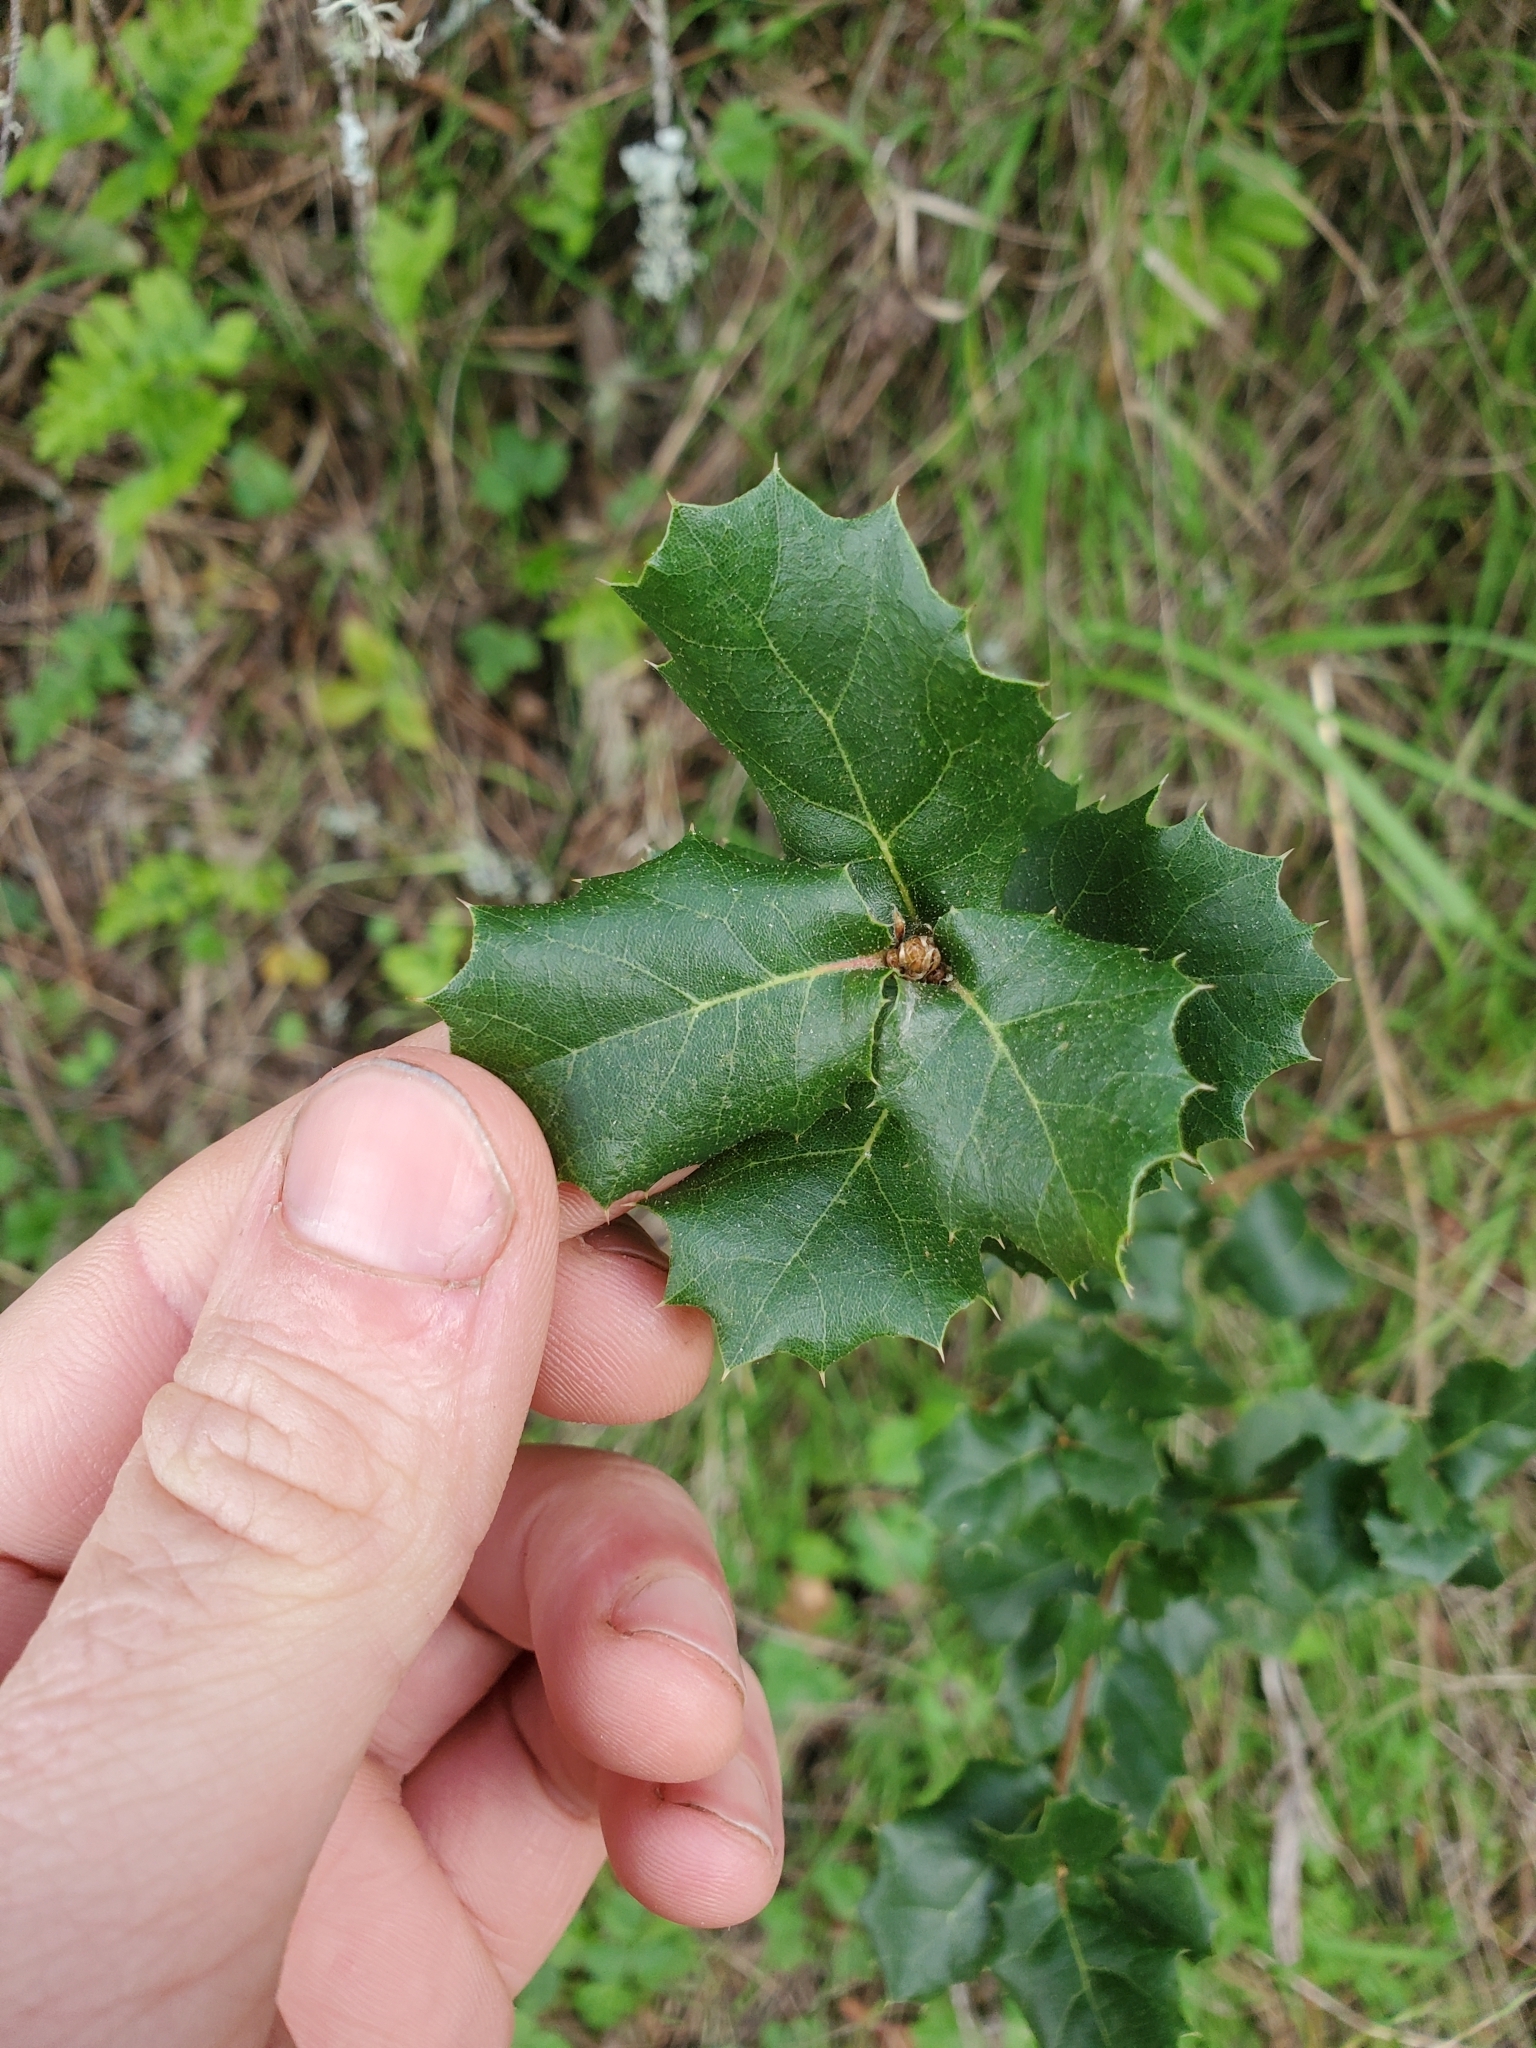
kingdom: Plantae
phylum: Tracheophyta
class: Magnoliopsida
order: Fagales
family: Fagaceae
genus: Quercus
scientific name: Quercus agrifolia
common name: California live oak
